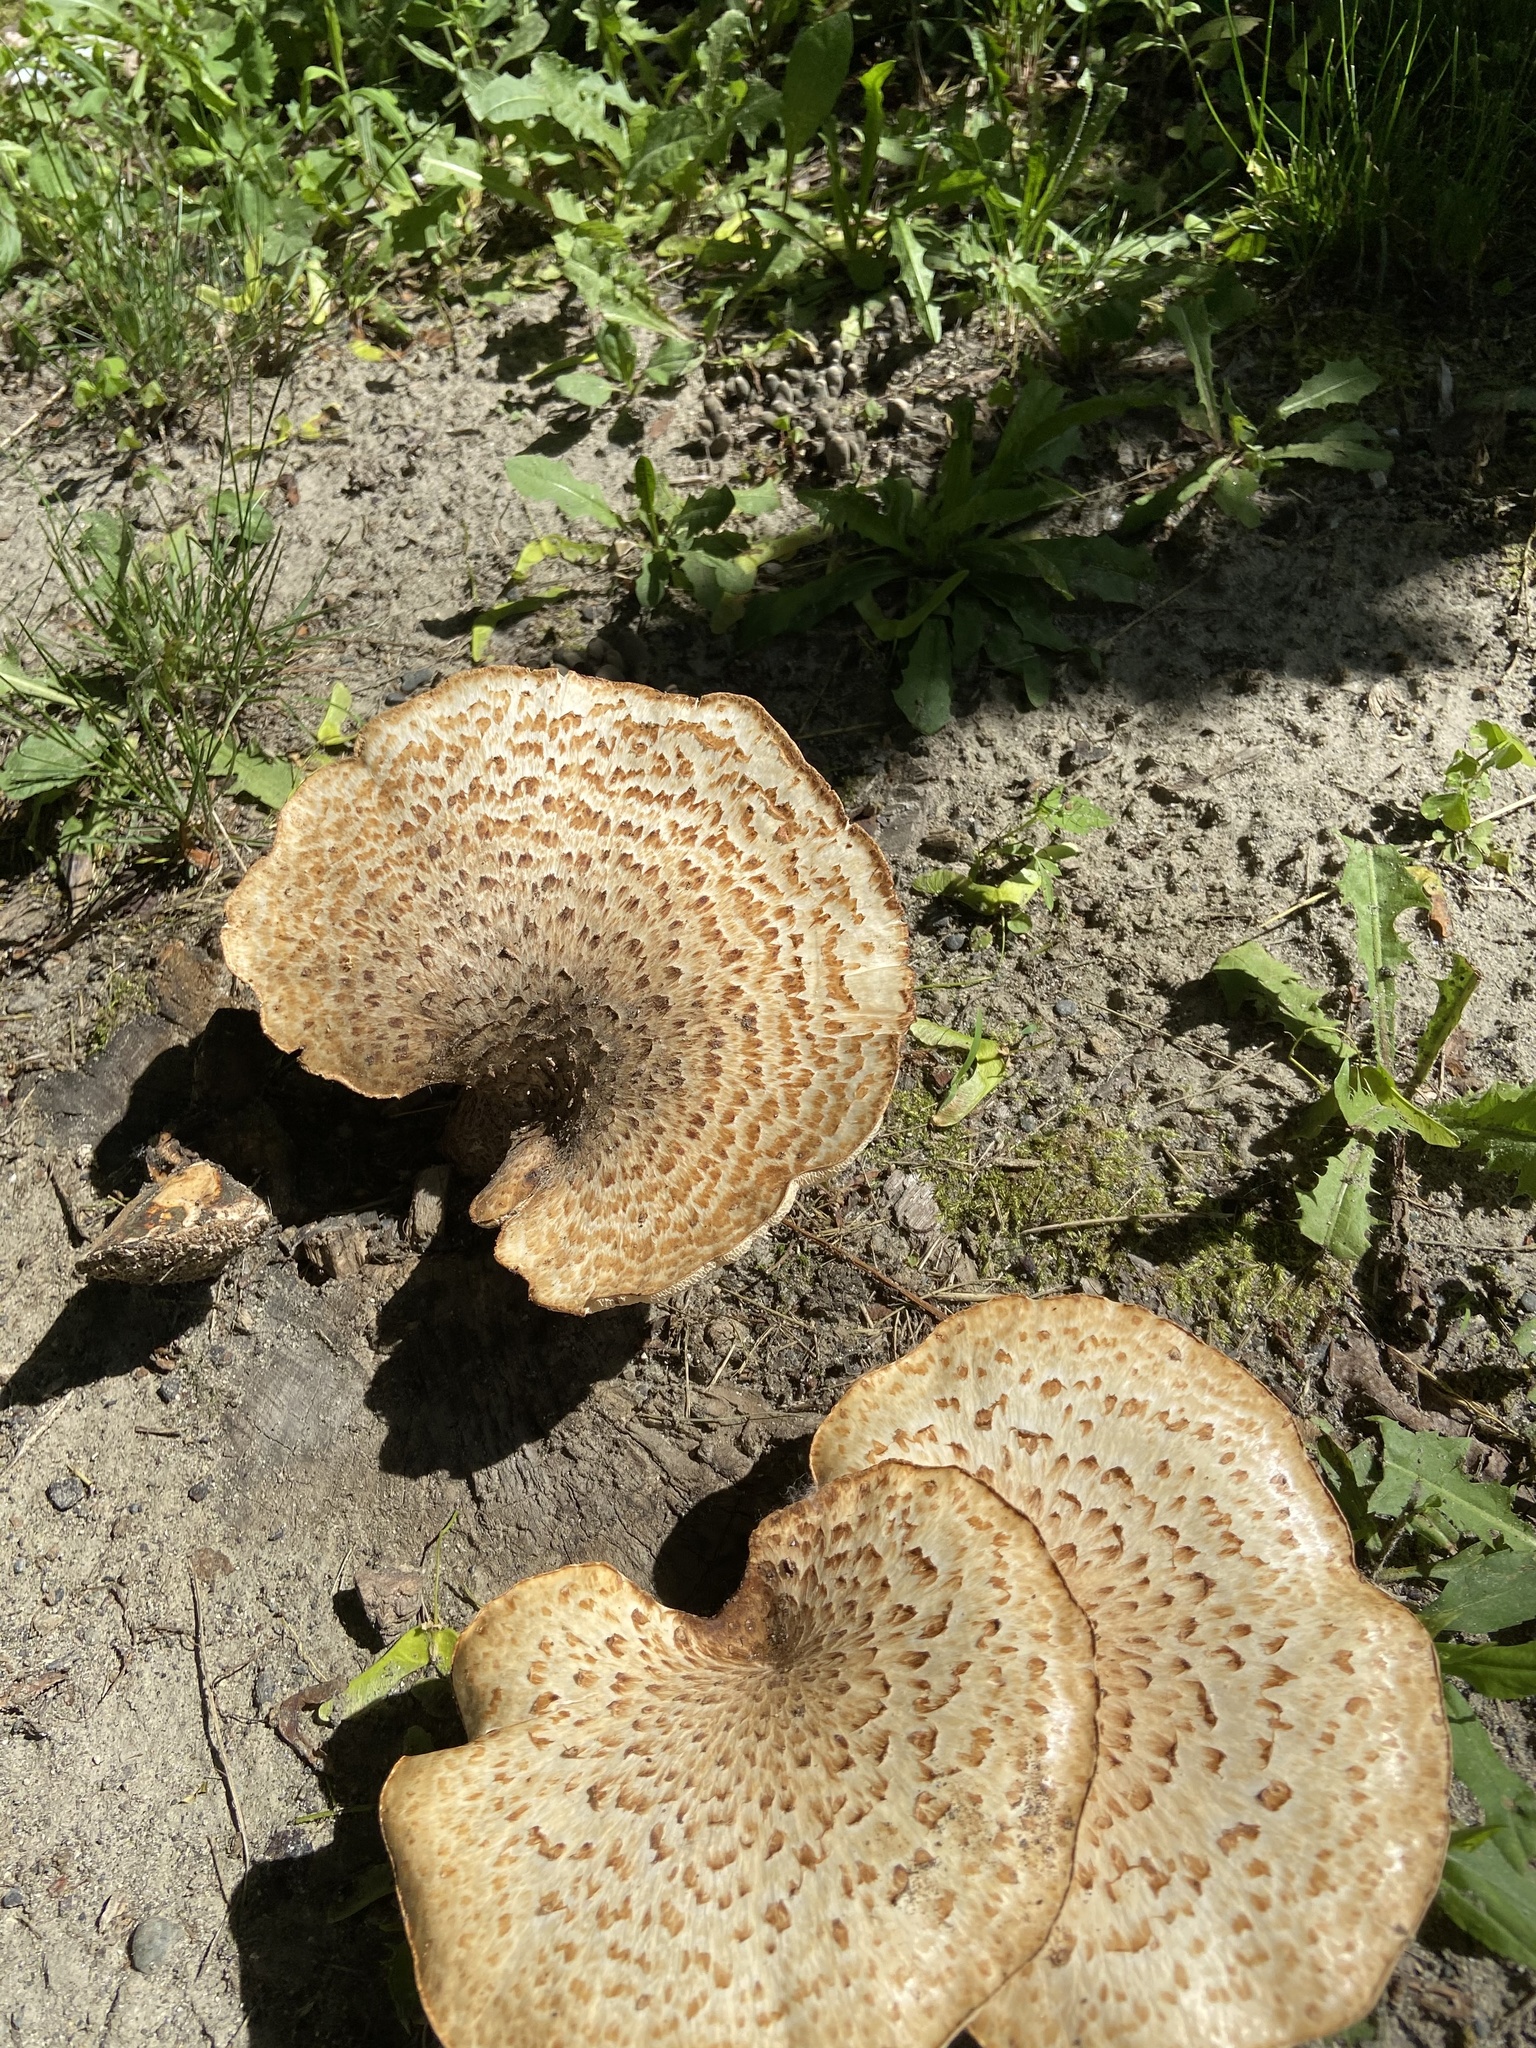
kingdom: Fungi
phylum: Basidiomycota
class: Agaricomycetes
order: Polyporales
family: Polyporaceae
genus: Cerioporus
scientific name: Cerioporus squamosus
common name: Dryad's saddle
